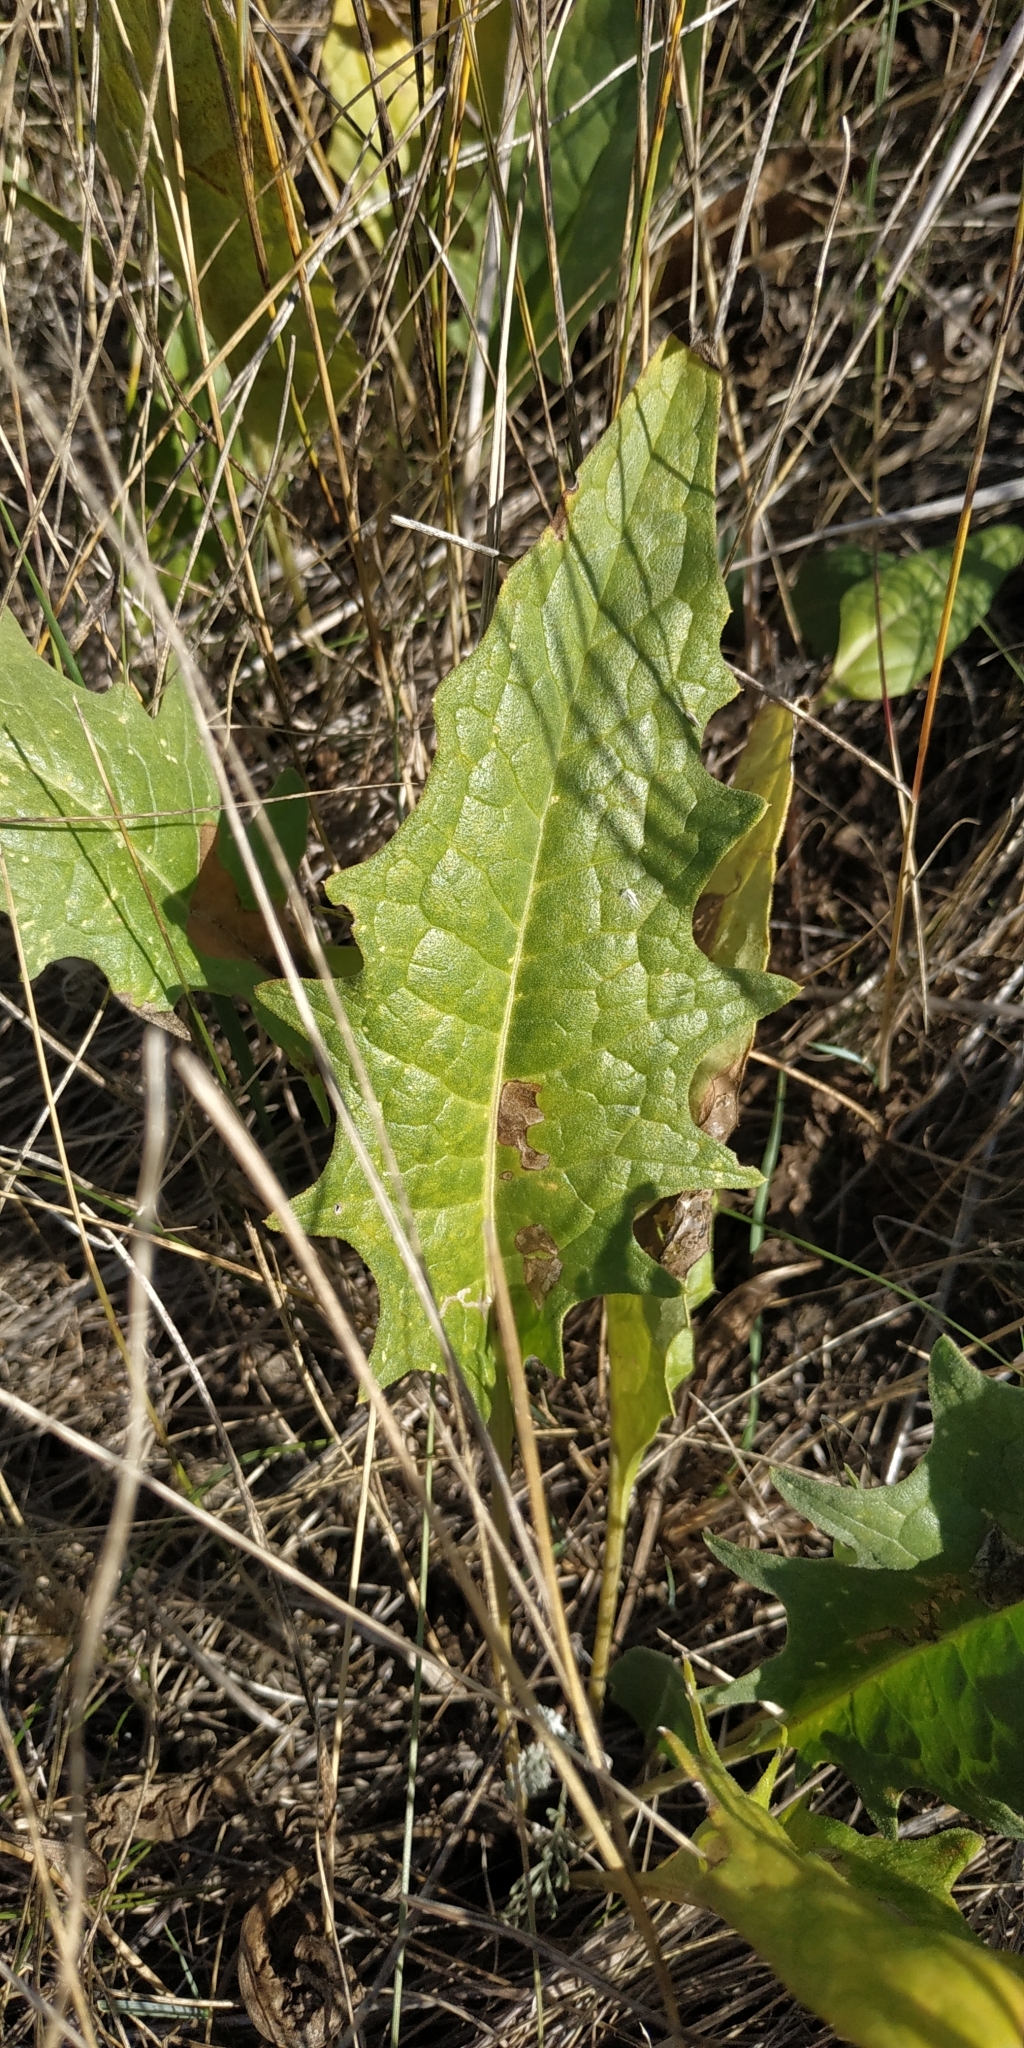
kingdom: Plantae
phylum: Tracheophyta
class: Magnoliopsida
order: Asterales
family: Asteraceae
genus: Saussurea
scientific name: Saussurea amara
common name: Alberta sawwort
